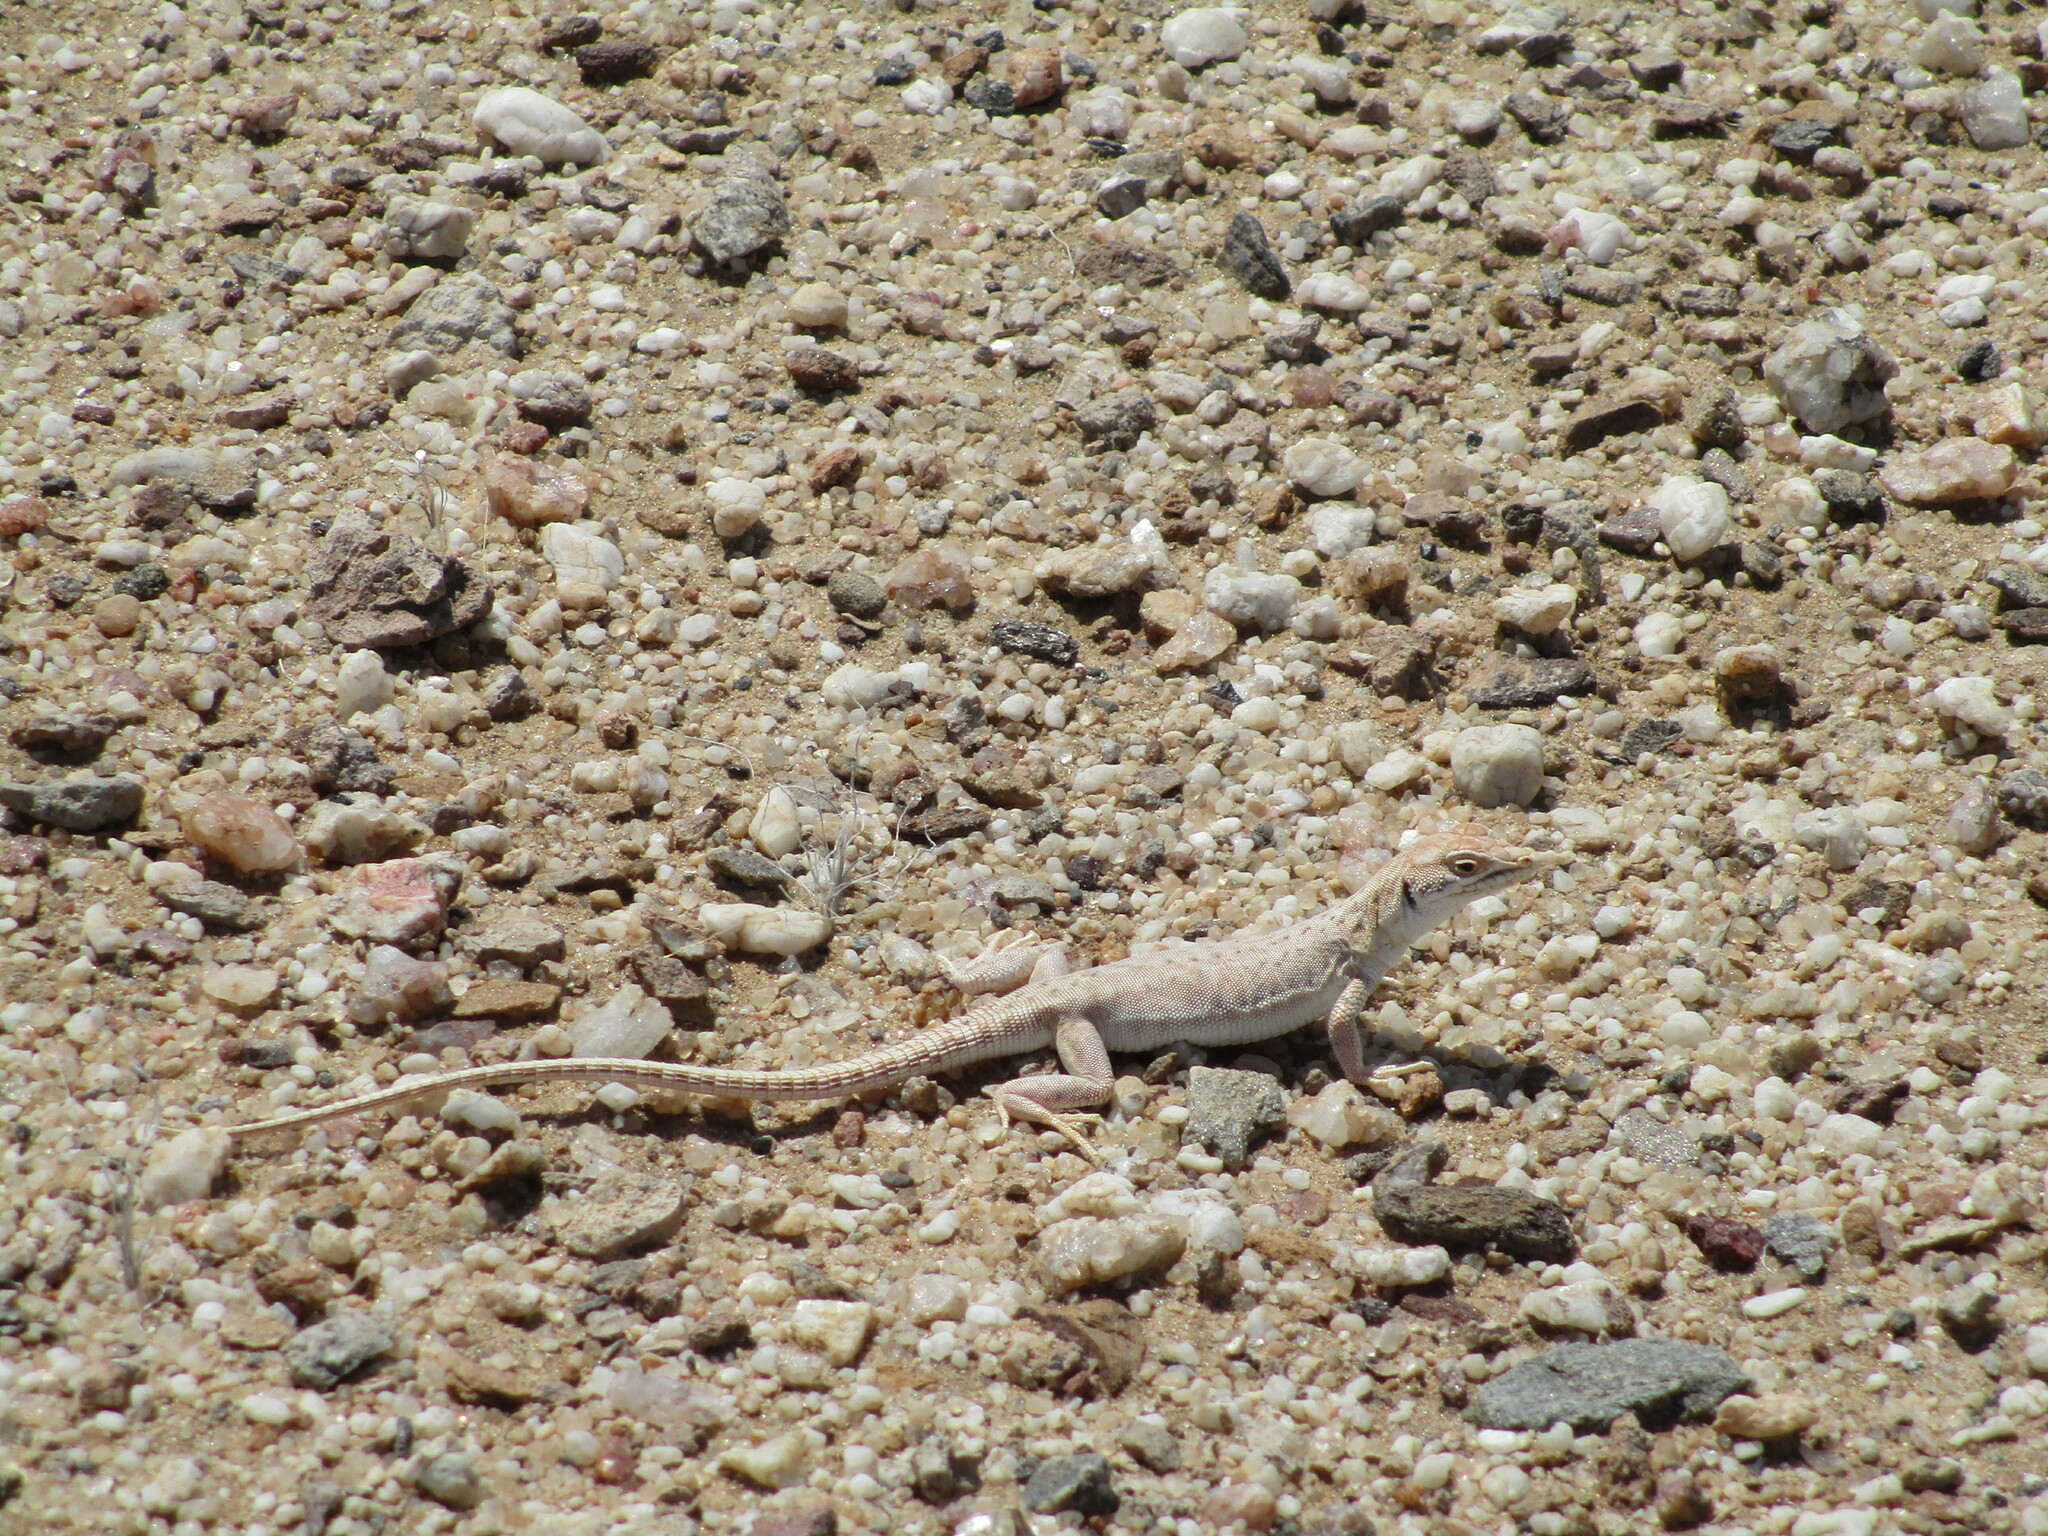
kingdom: Animalia
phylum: Chordata
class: Squamata
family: Lacertidae
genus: Meroles
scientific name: Meroles suborbitalis
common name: Spotted sand lizard
